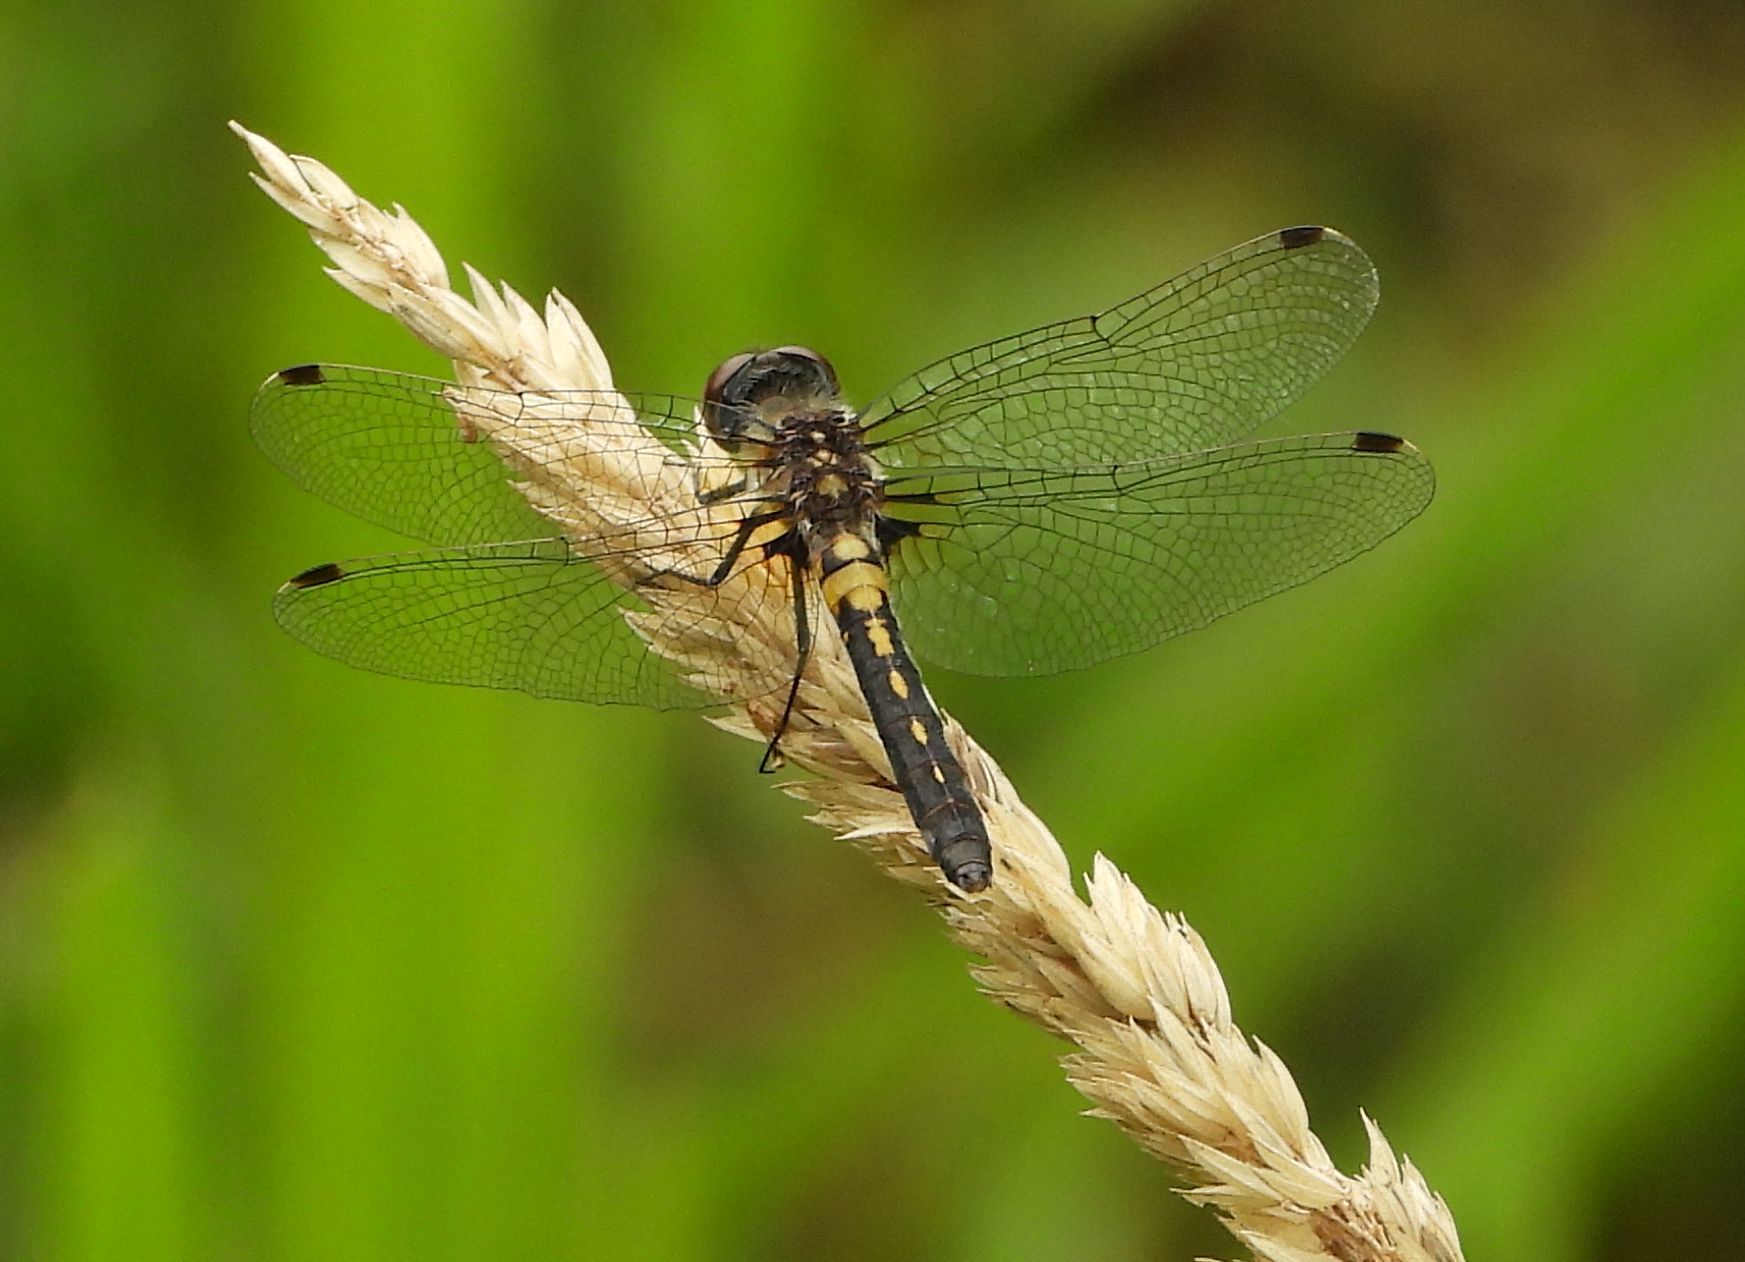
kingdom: Animalia
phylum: Arthropoda
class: Insecta
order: Odonata
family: Libellulidae
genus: Leucorrhinia
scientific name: Leucorrhinia frigida
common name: Frosted whiteface
